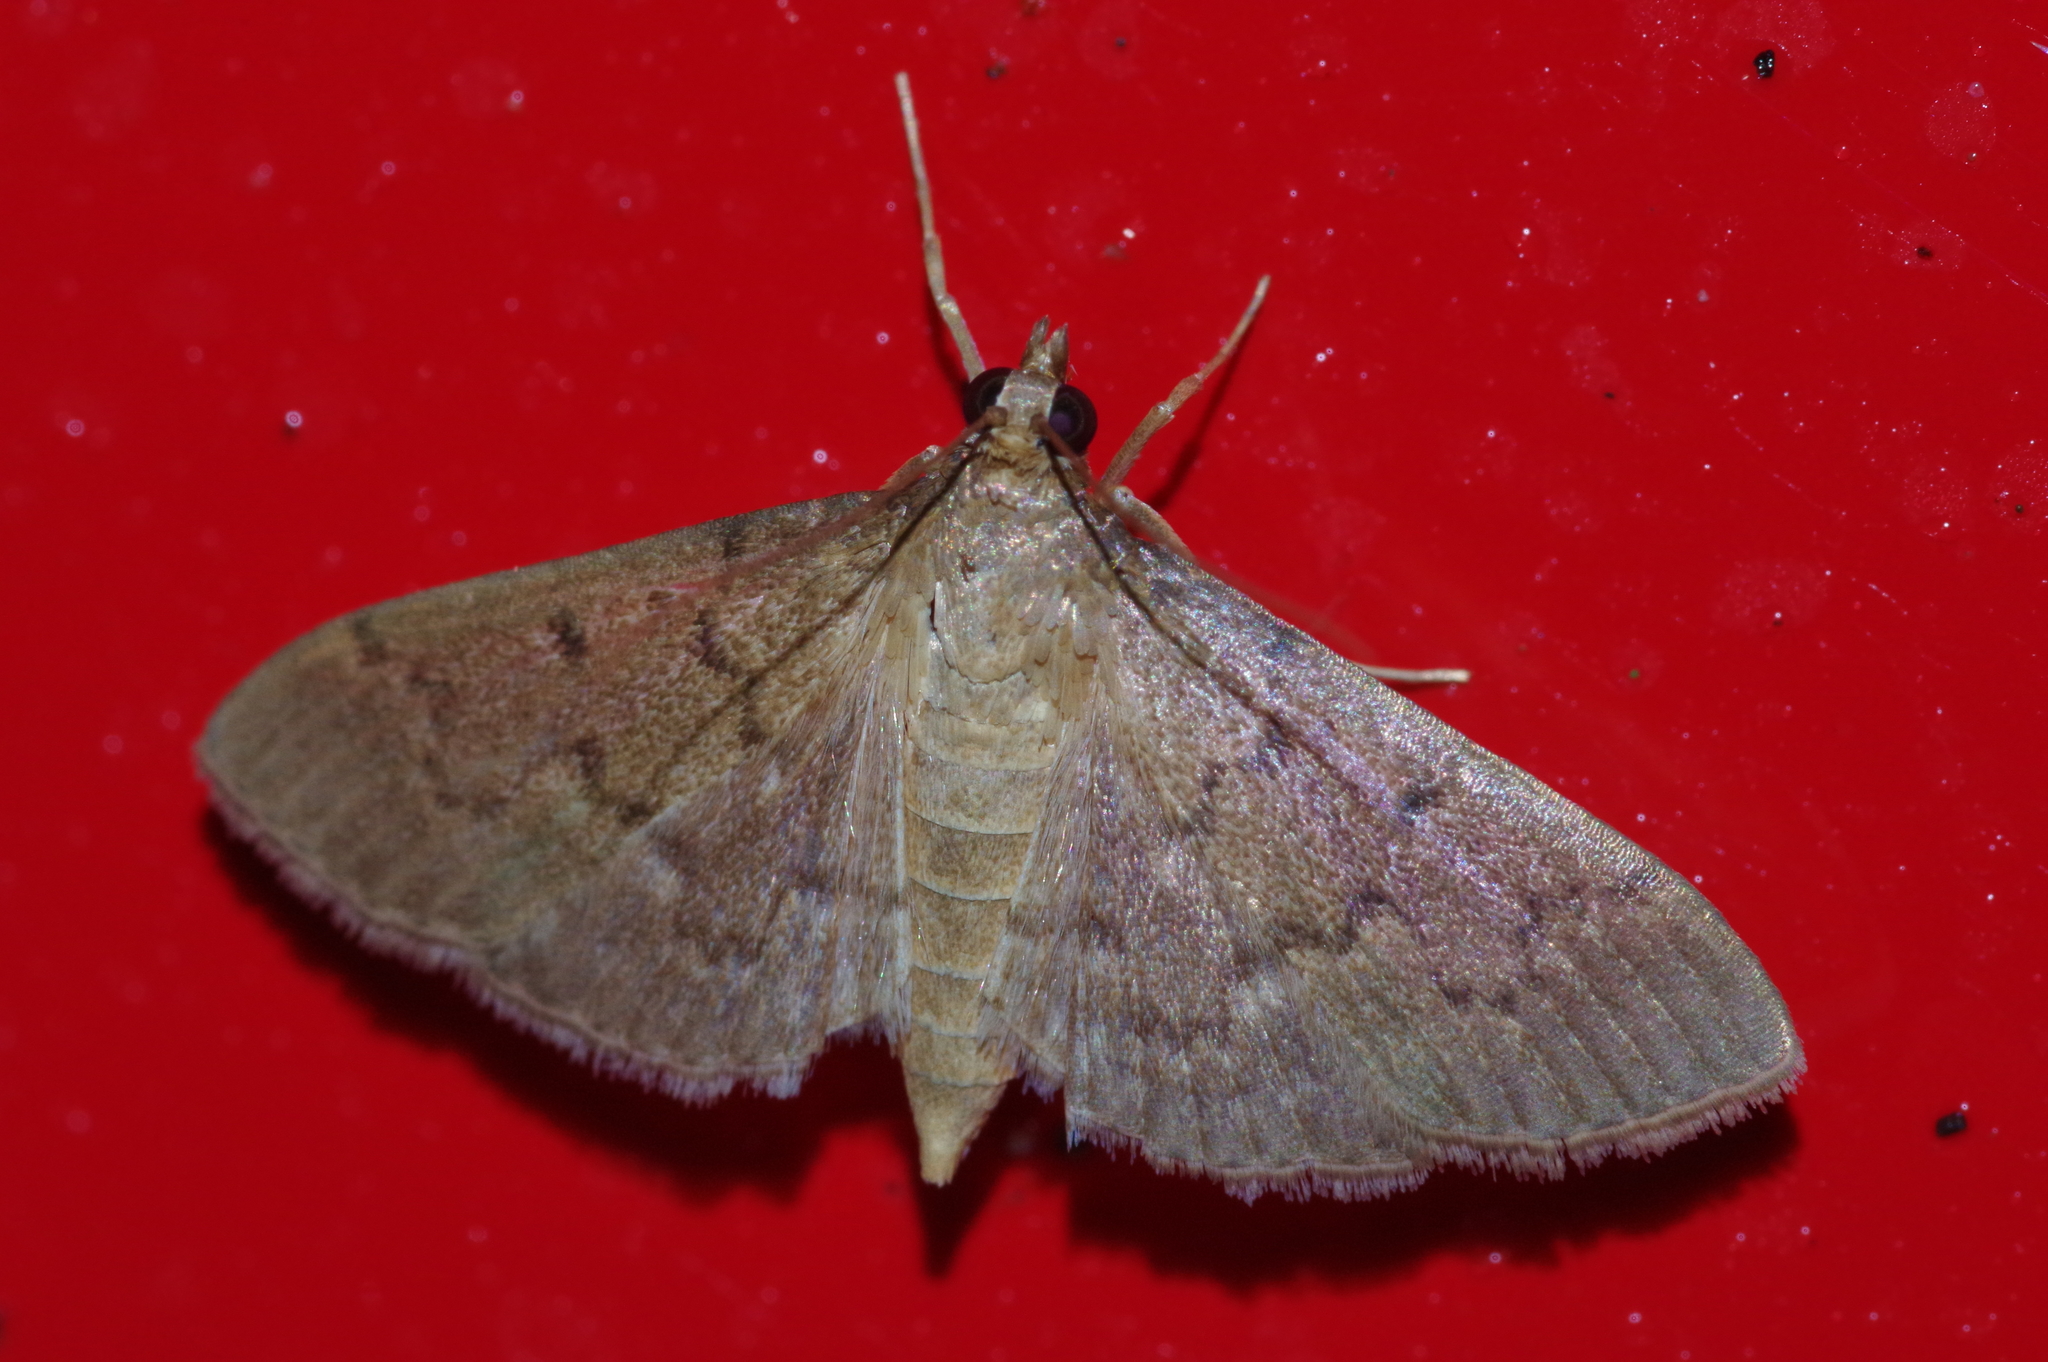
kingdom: Animalia
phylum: Arthropoda
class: Insecta
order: Lepidoptera
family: Crambidae
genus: Herpetogramma
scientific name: Herpetogramma licarsisalis
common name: Grass webworm
